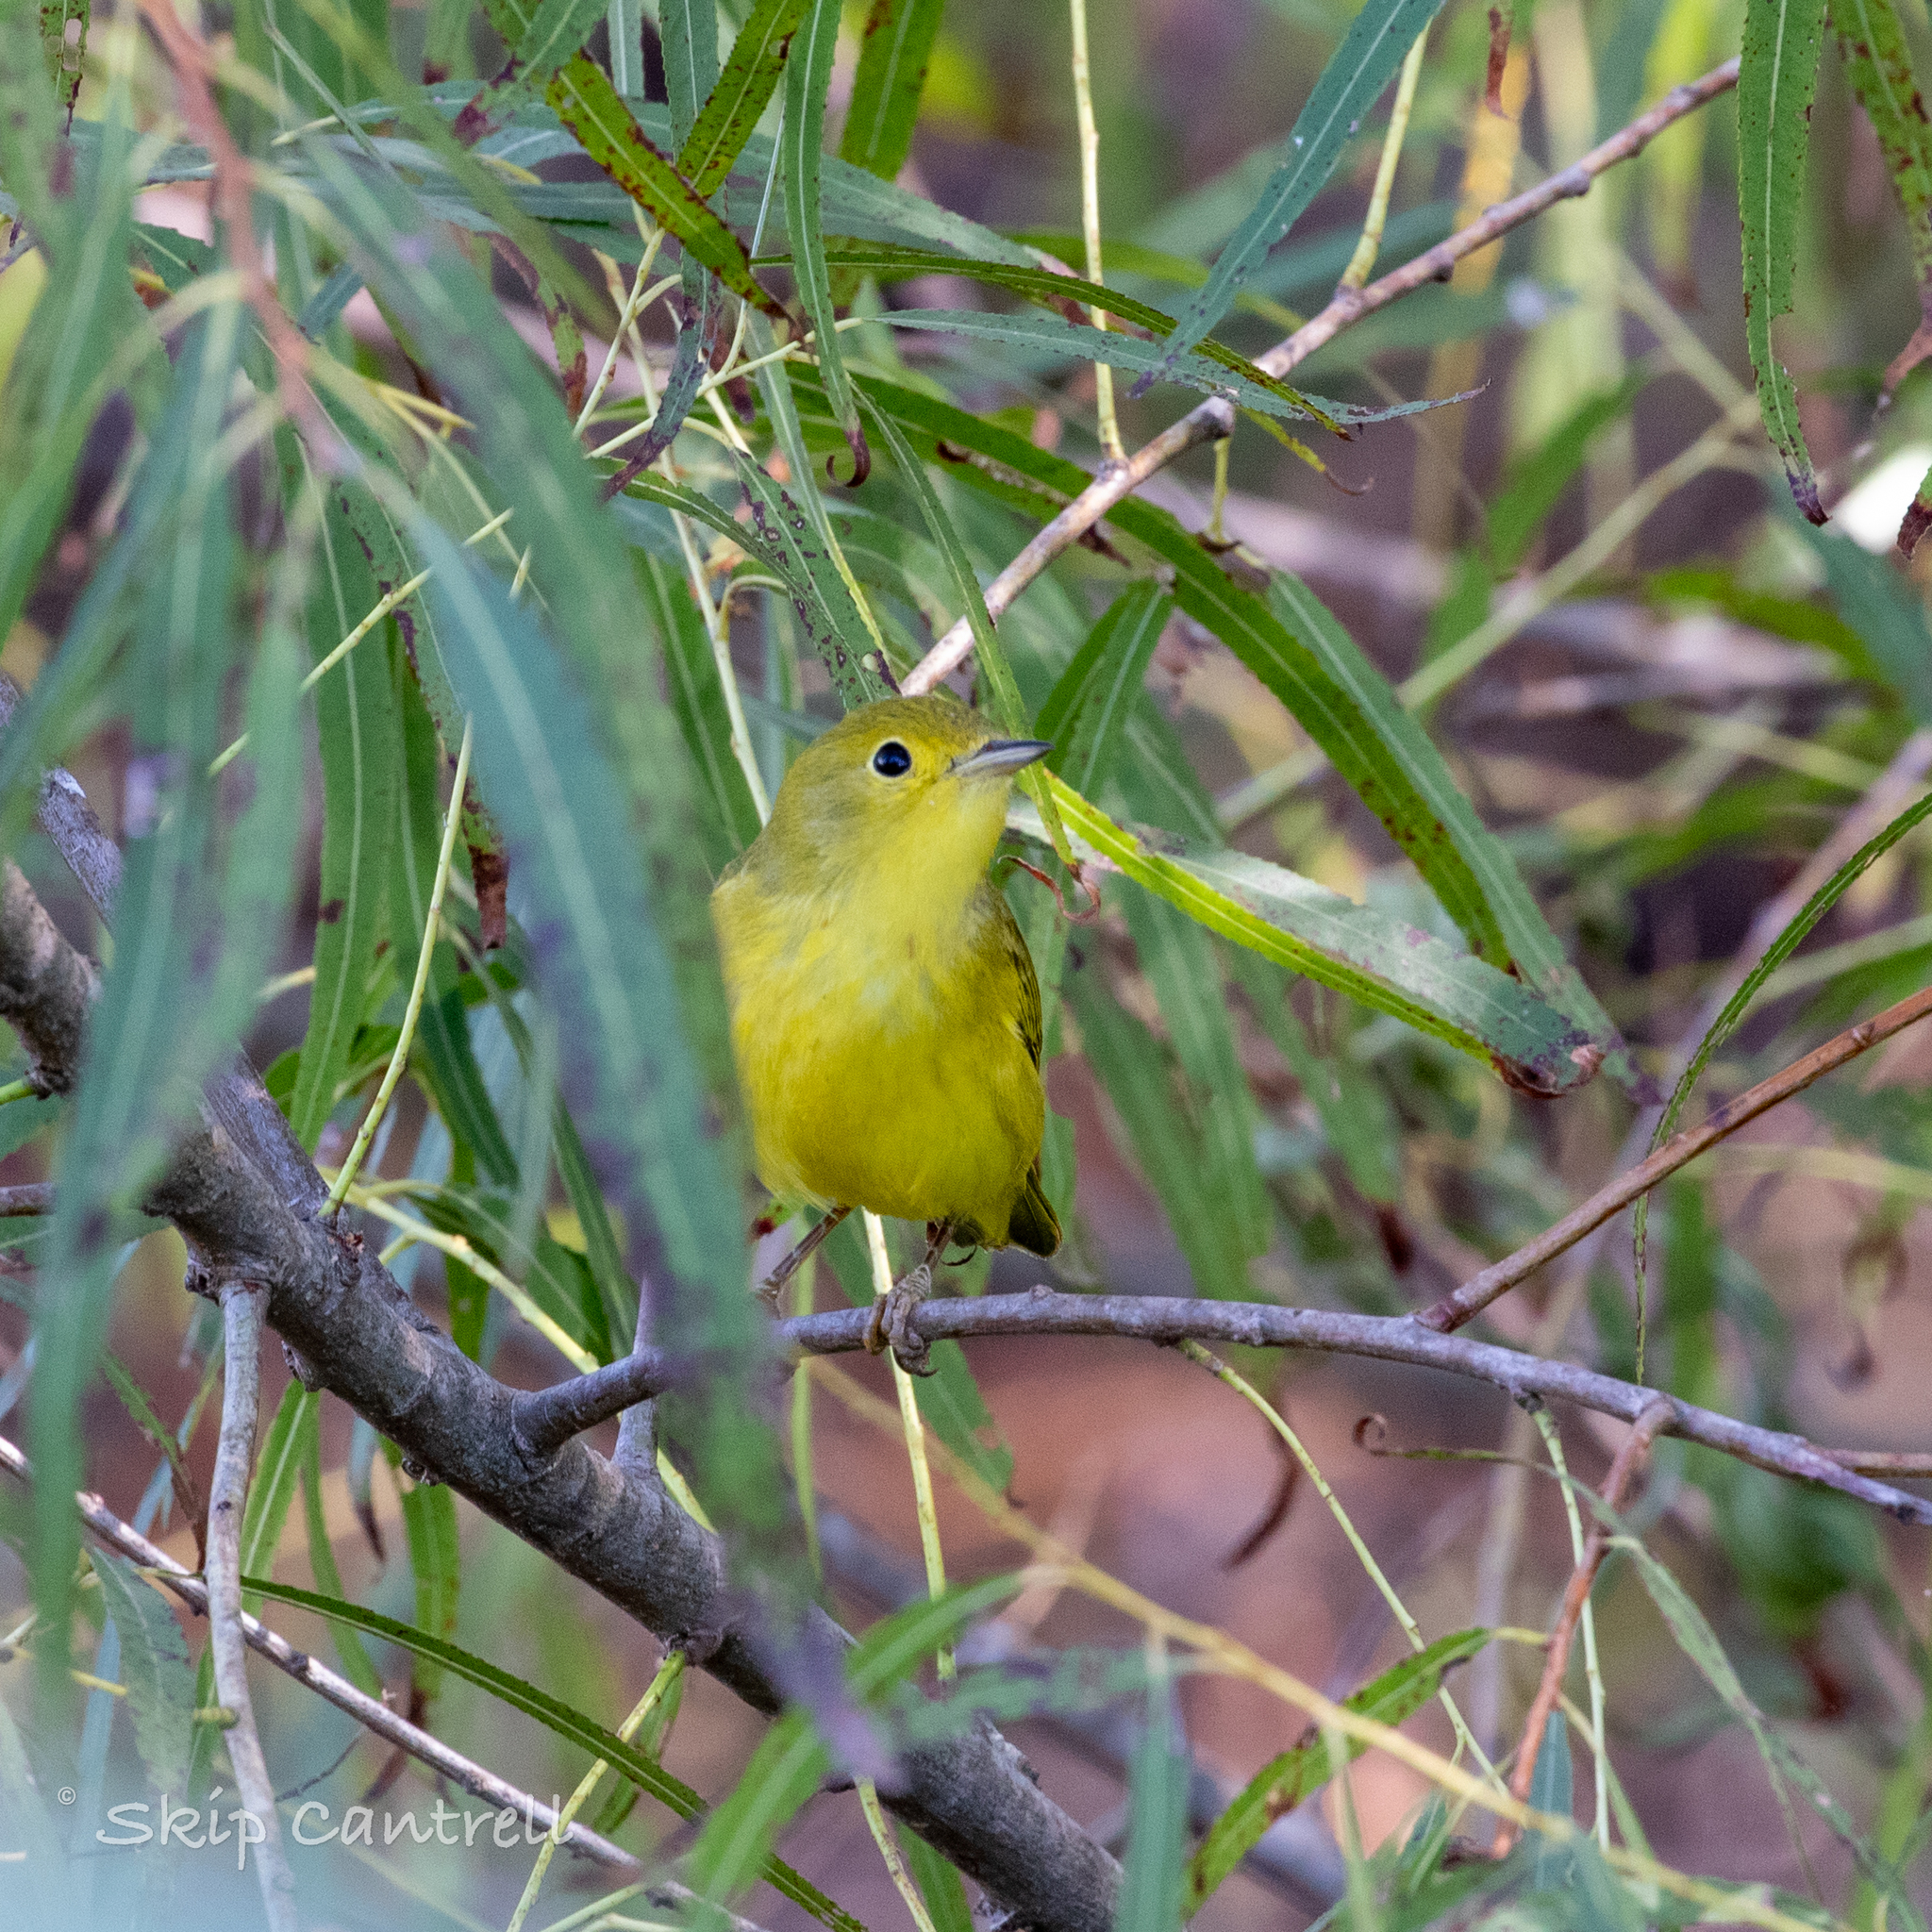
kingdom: Animalia
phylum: Chordata
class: Aves
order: Passeriformes
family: Parulidae
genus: Setophaga
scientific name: Setophaga petechia
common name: Yellow warbler
